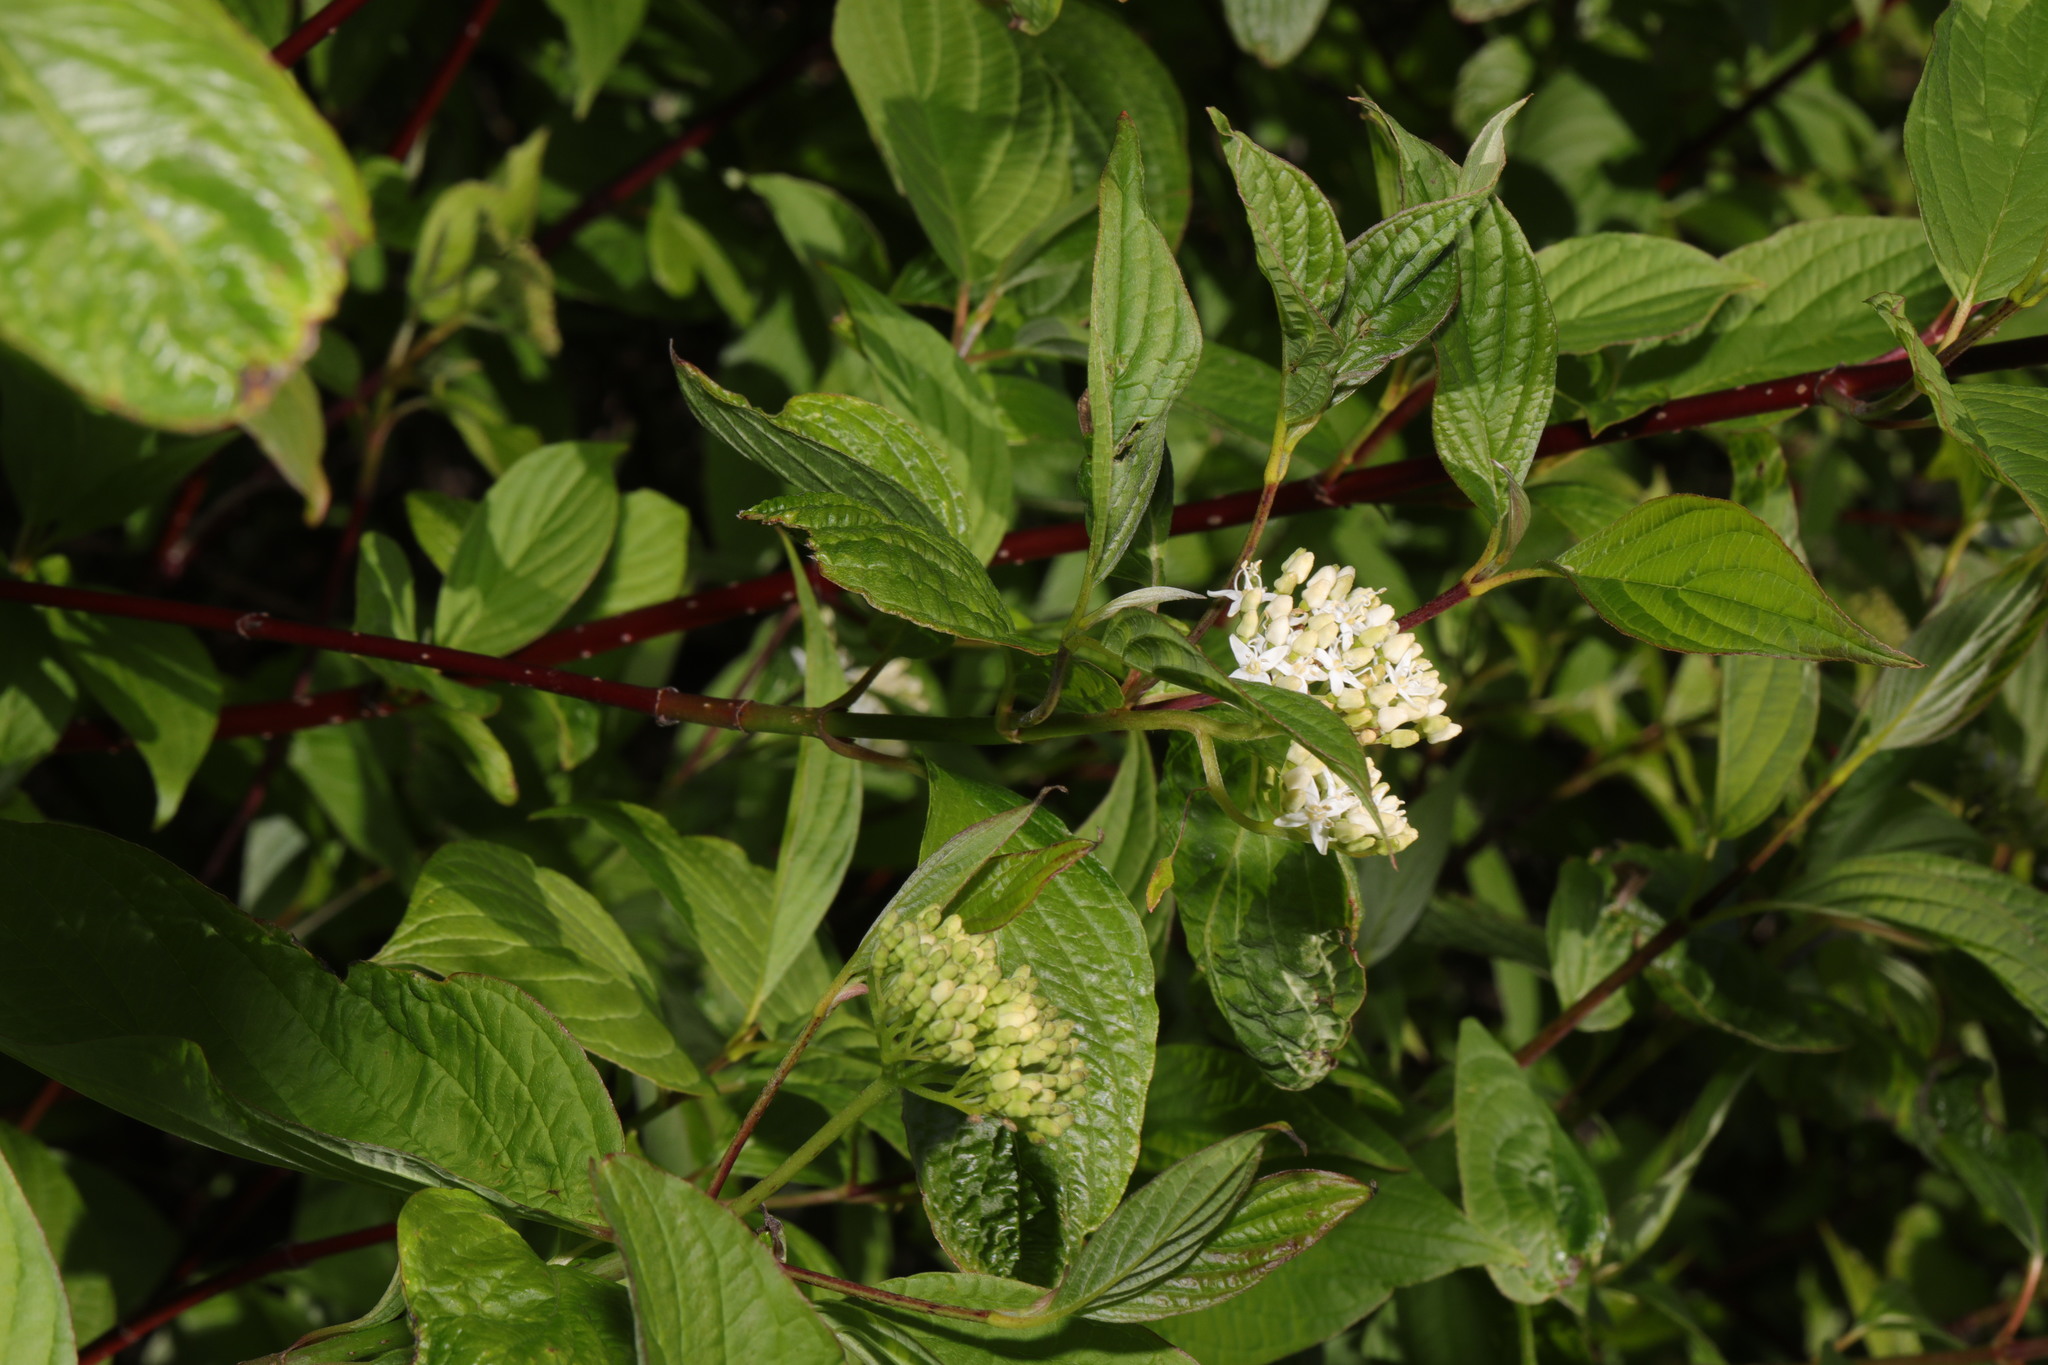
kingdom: Plantae
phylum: Tracheophyta
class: Magnoliopsida
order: Cornales
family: Cornaceae
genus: Cornus
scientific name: Cornus sanguinea
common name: Dogwood
